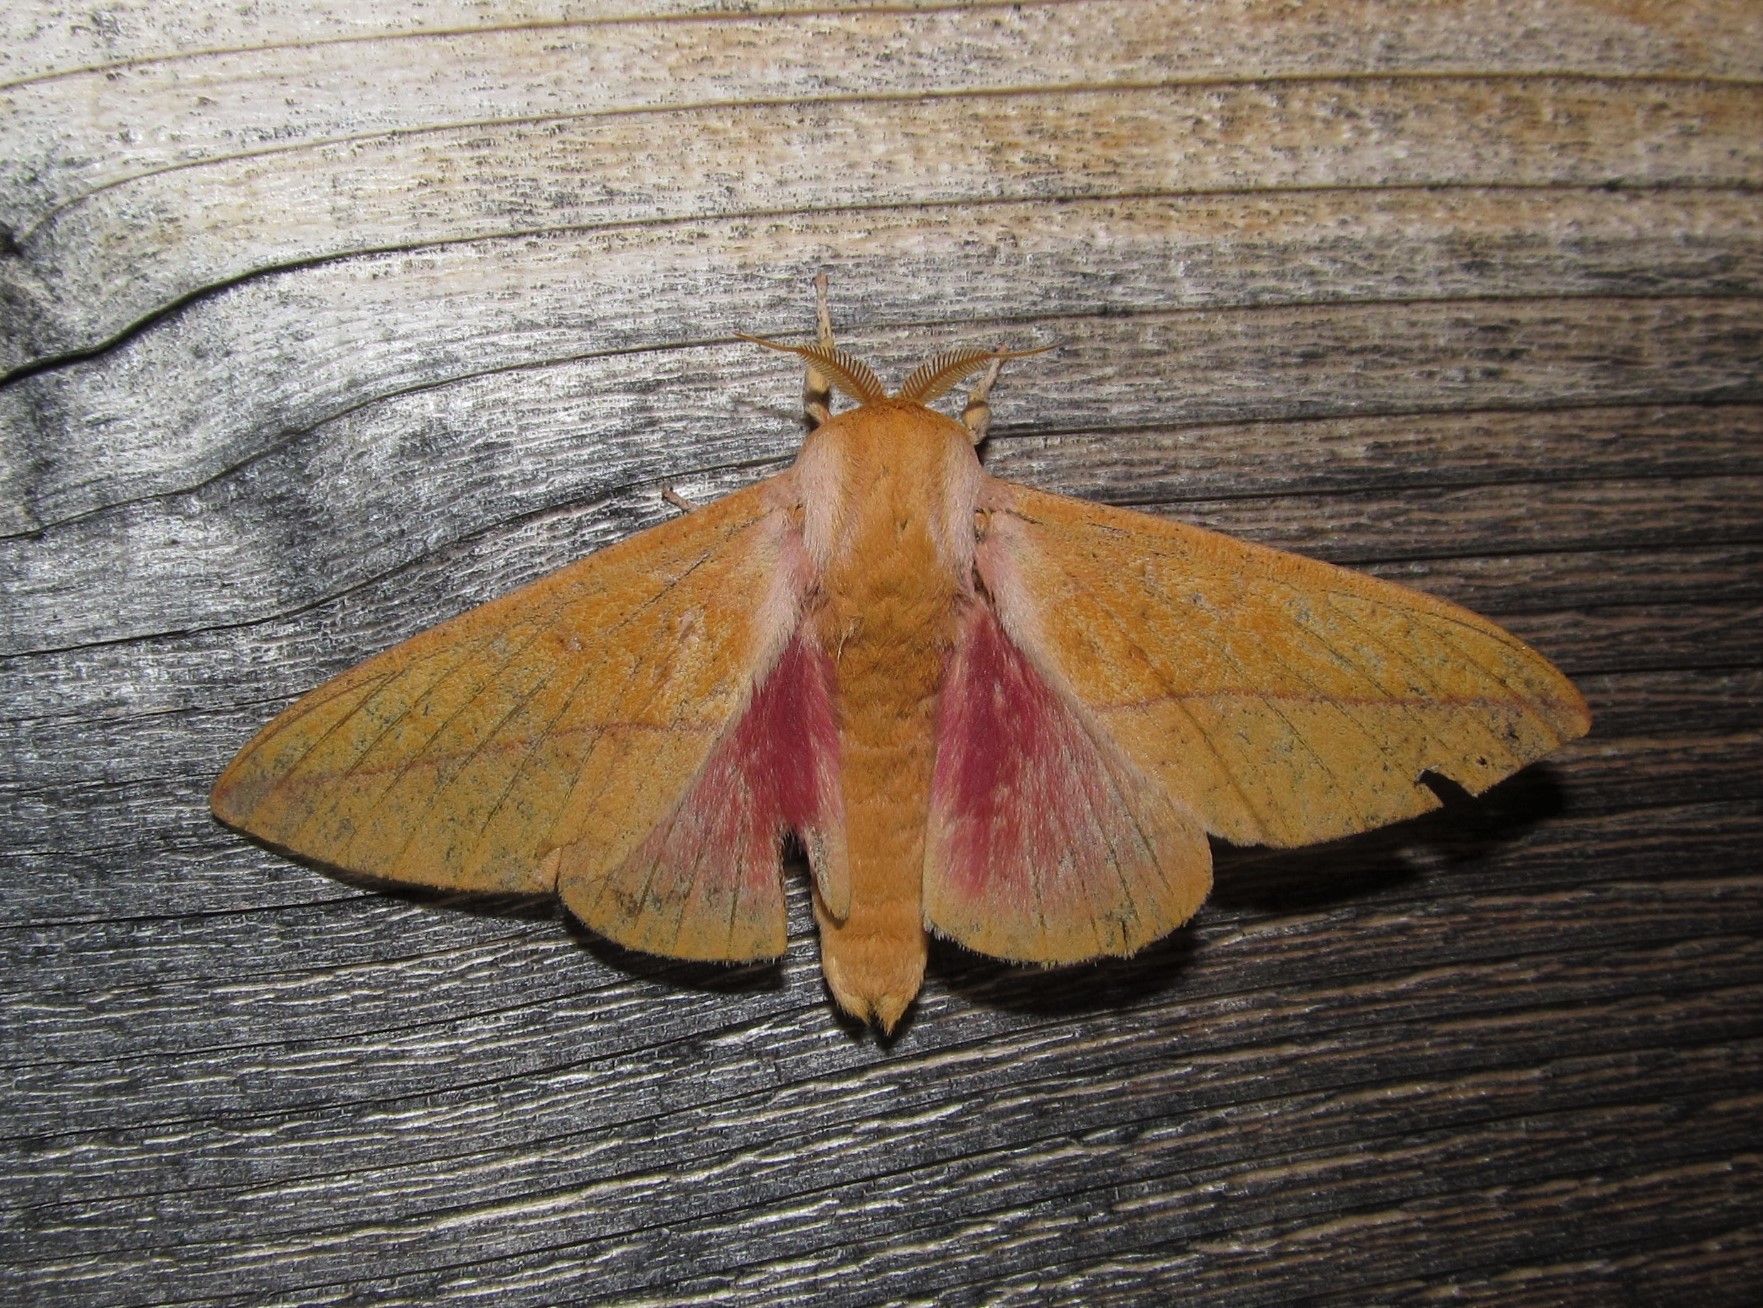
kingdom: Animalia
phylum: Arthropoda
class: Insecta
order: Lepidoptera
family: Saturniidae
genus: Syssphinx
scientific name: Syssphinx bisecta
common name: Bisected honey locust moth
